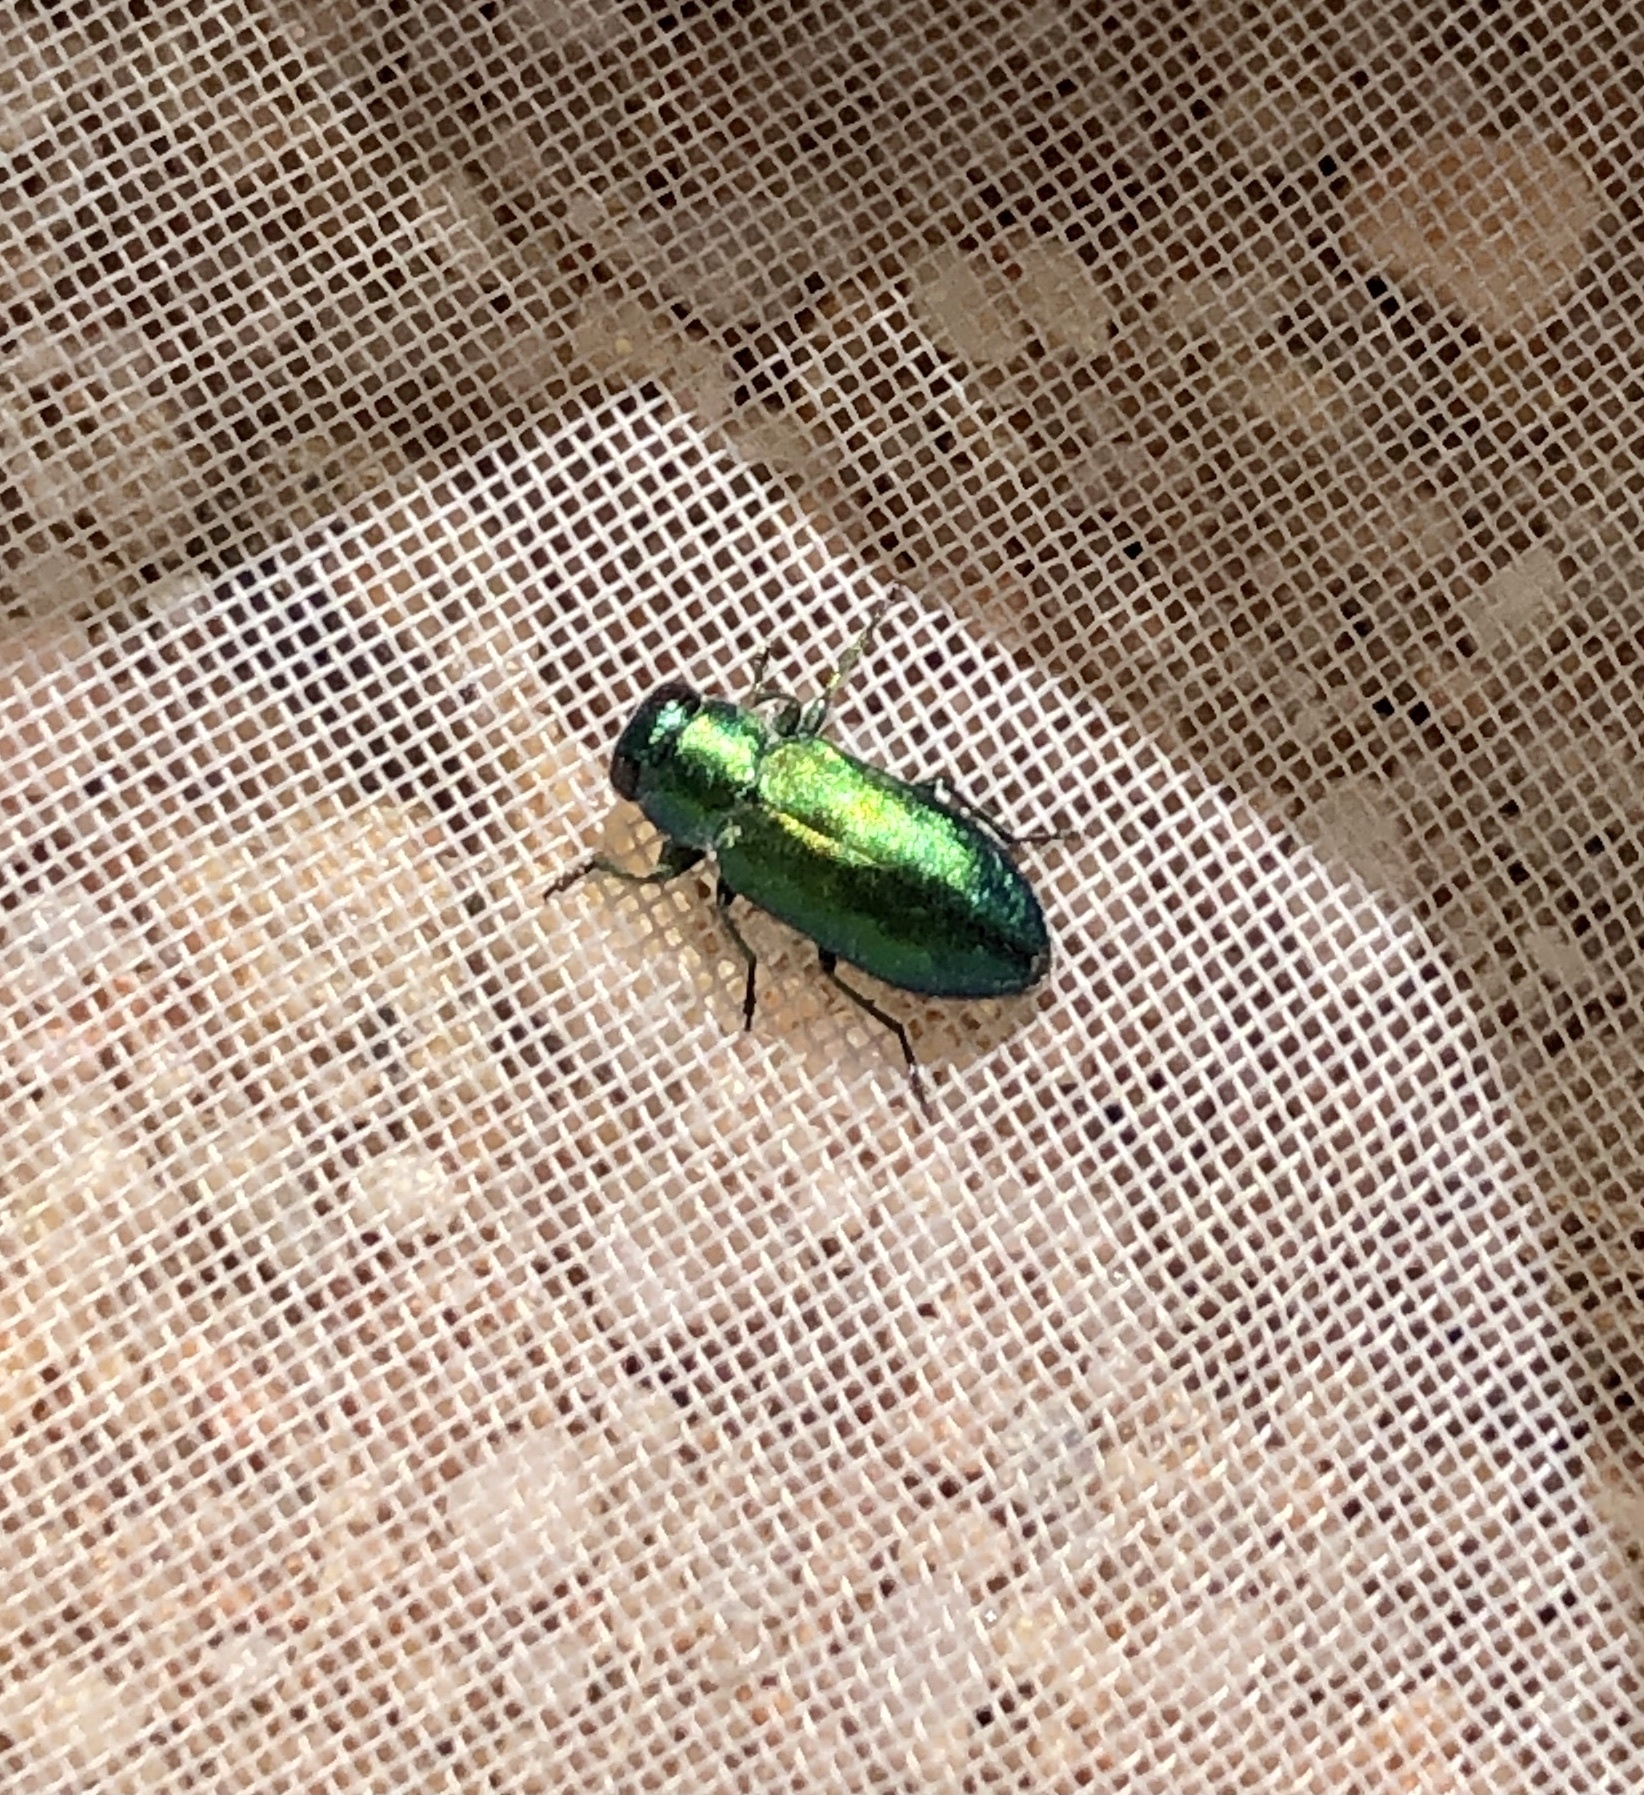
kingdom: Animalia
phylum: Arthropoda
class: Insecta
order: Coleoptera
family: Buprestidae
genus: Chrysobothris
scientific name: Chrysobothris purpureoplagiata
